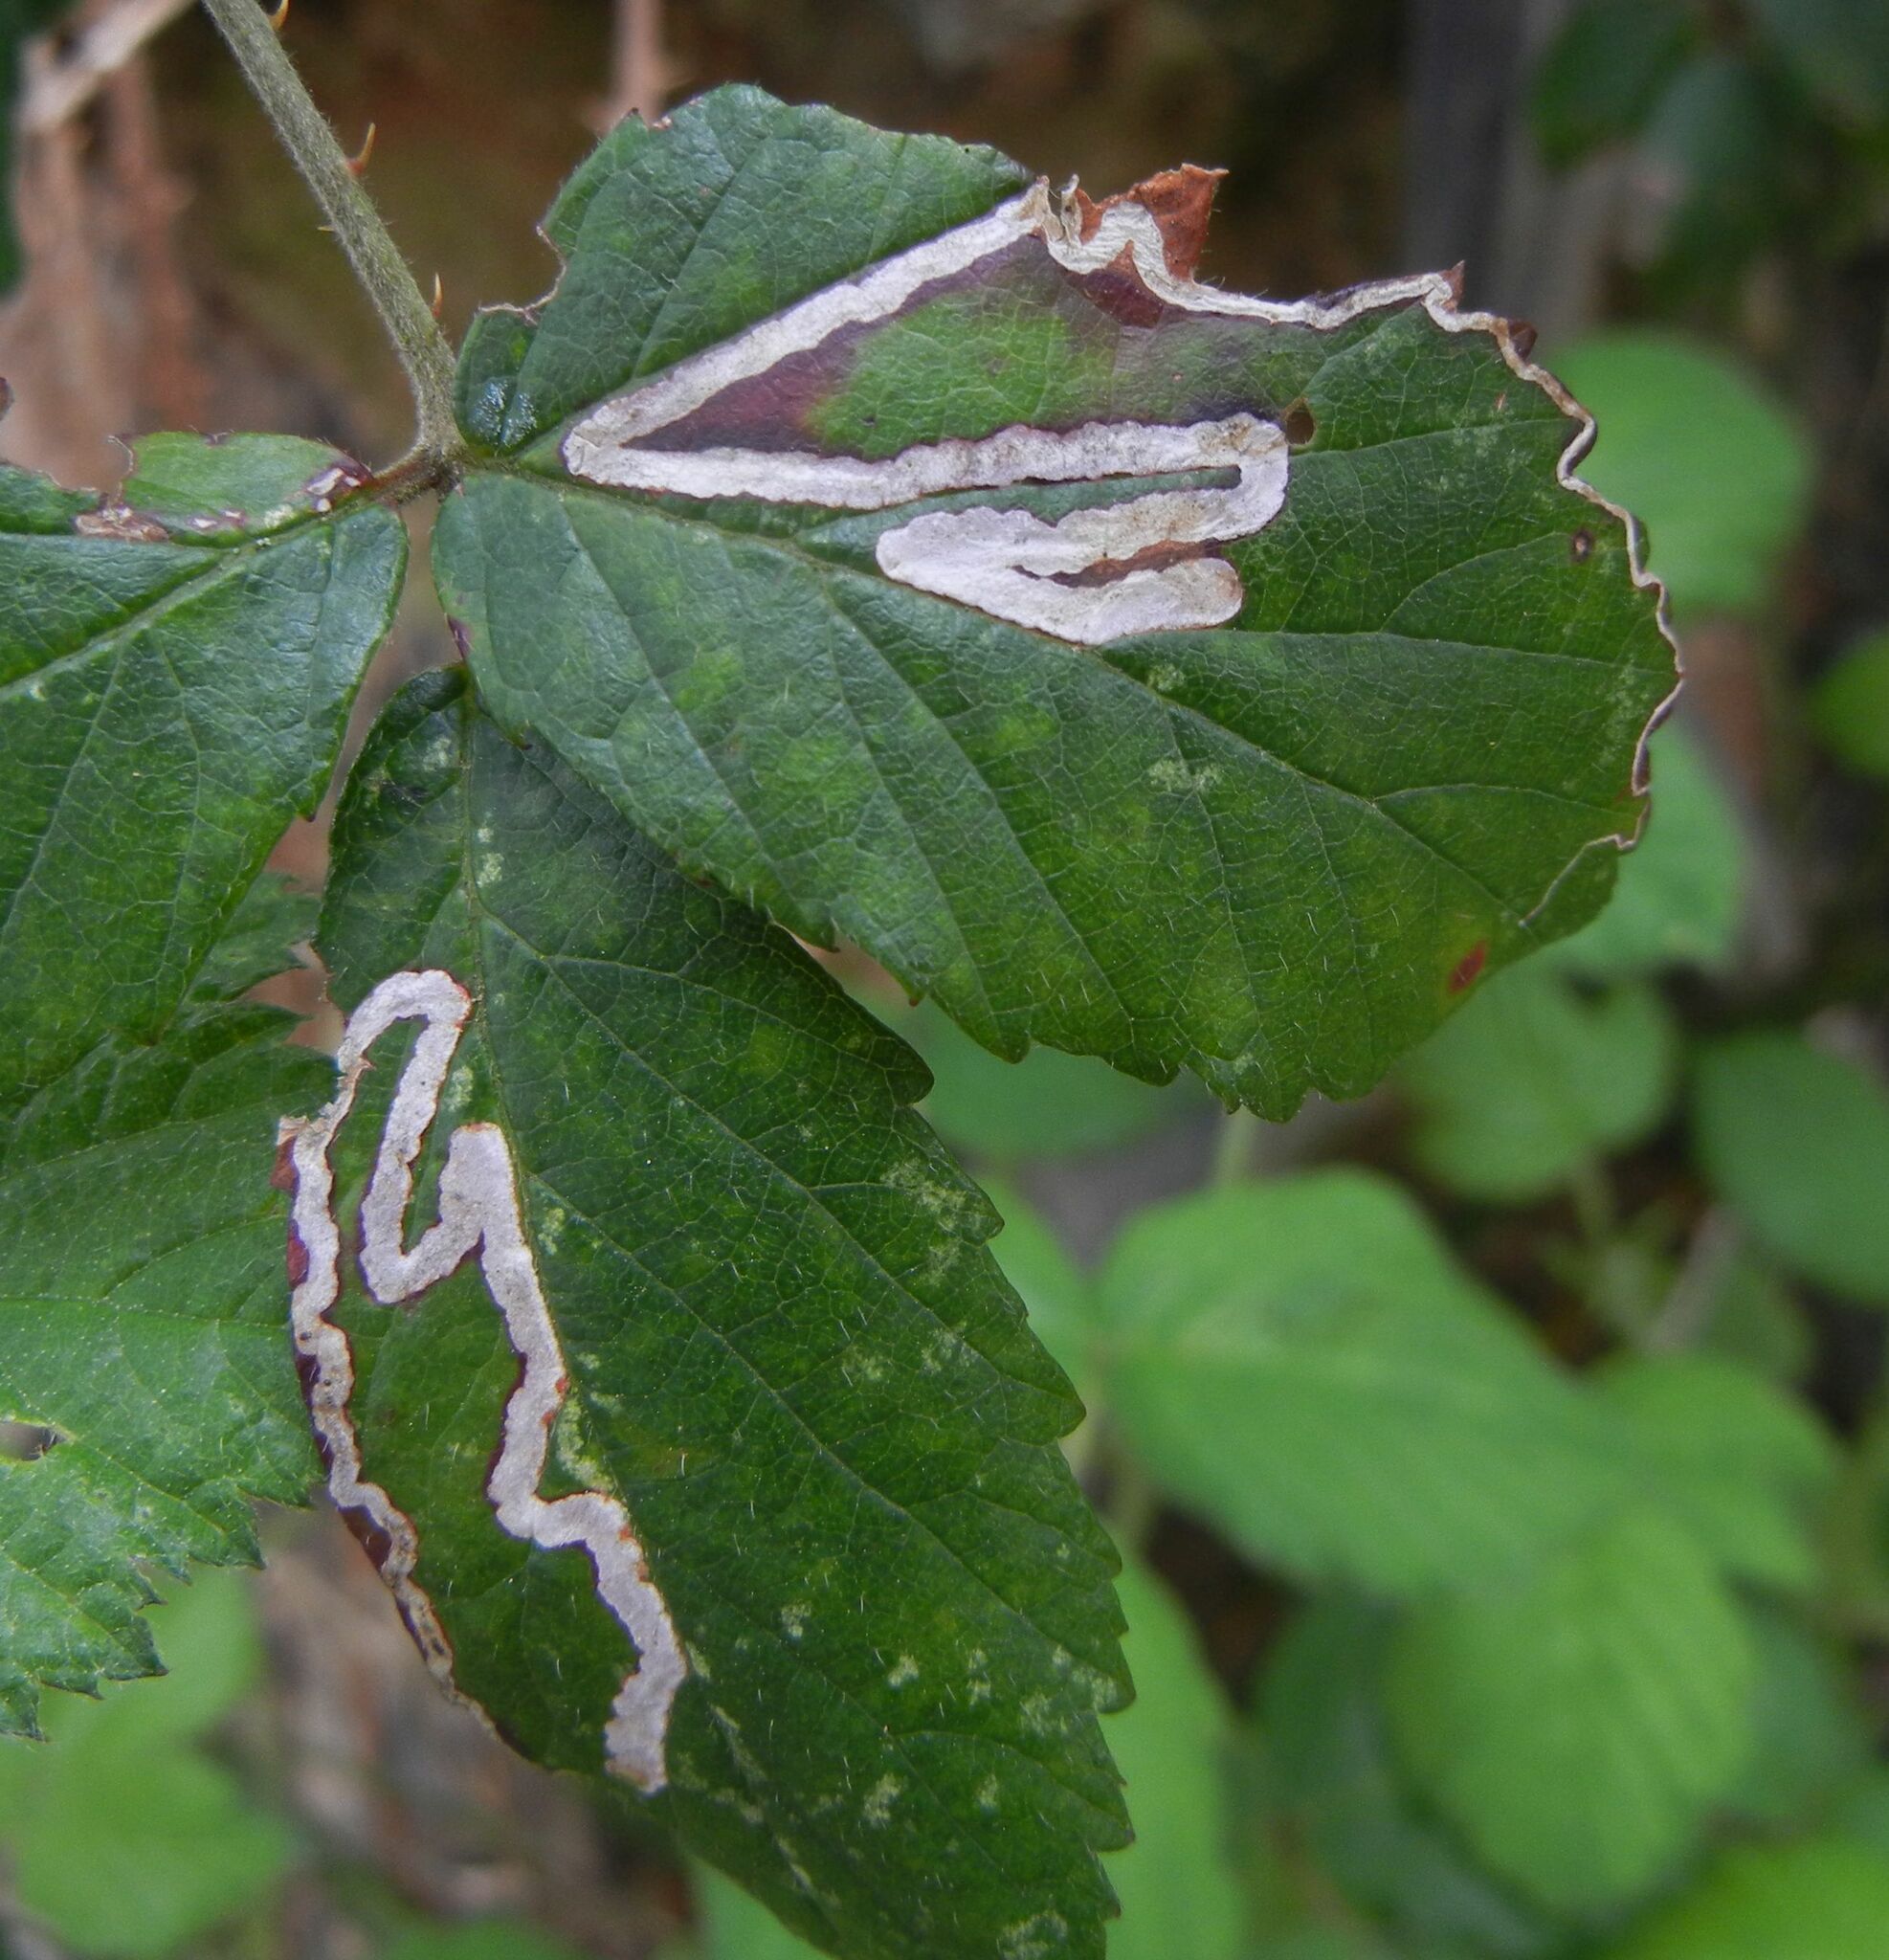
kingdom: Animalia
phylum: Arthropoda
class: Insecta
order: Lepidoptera
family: Nepticulidae
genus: Stigmella
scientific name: Stigmella aurella
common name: Golden pigmy
